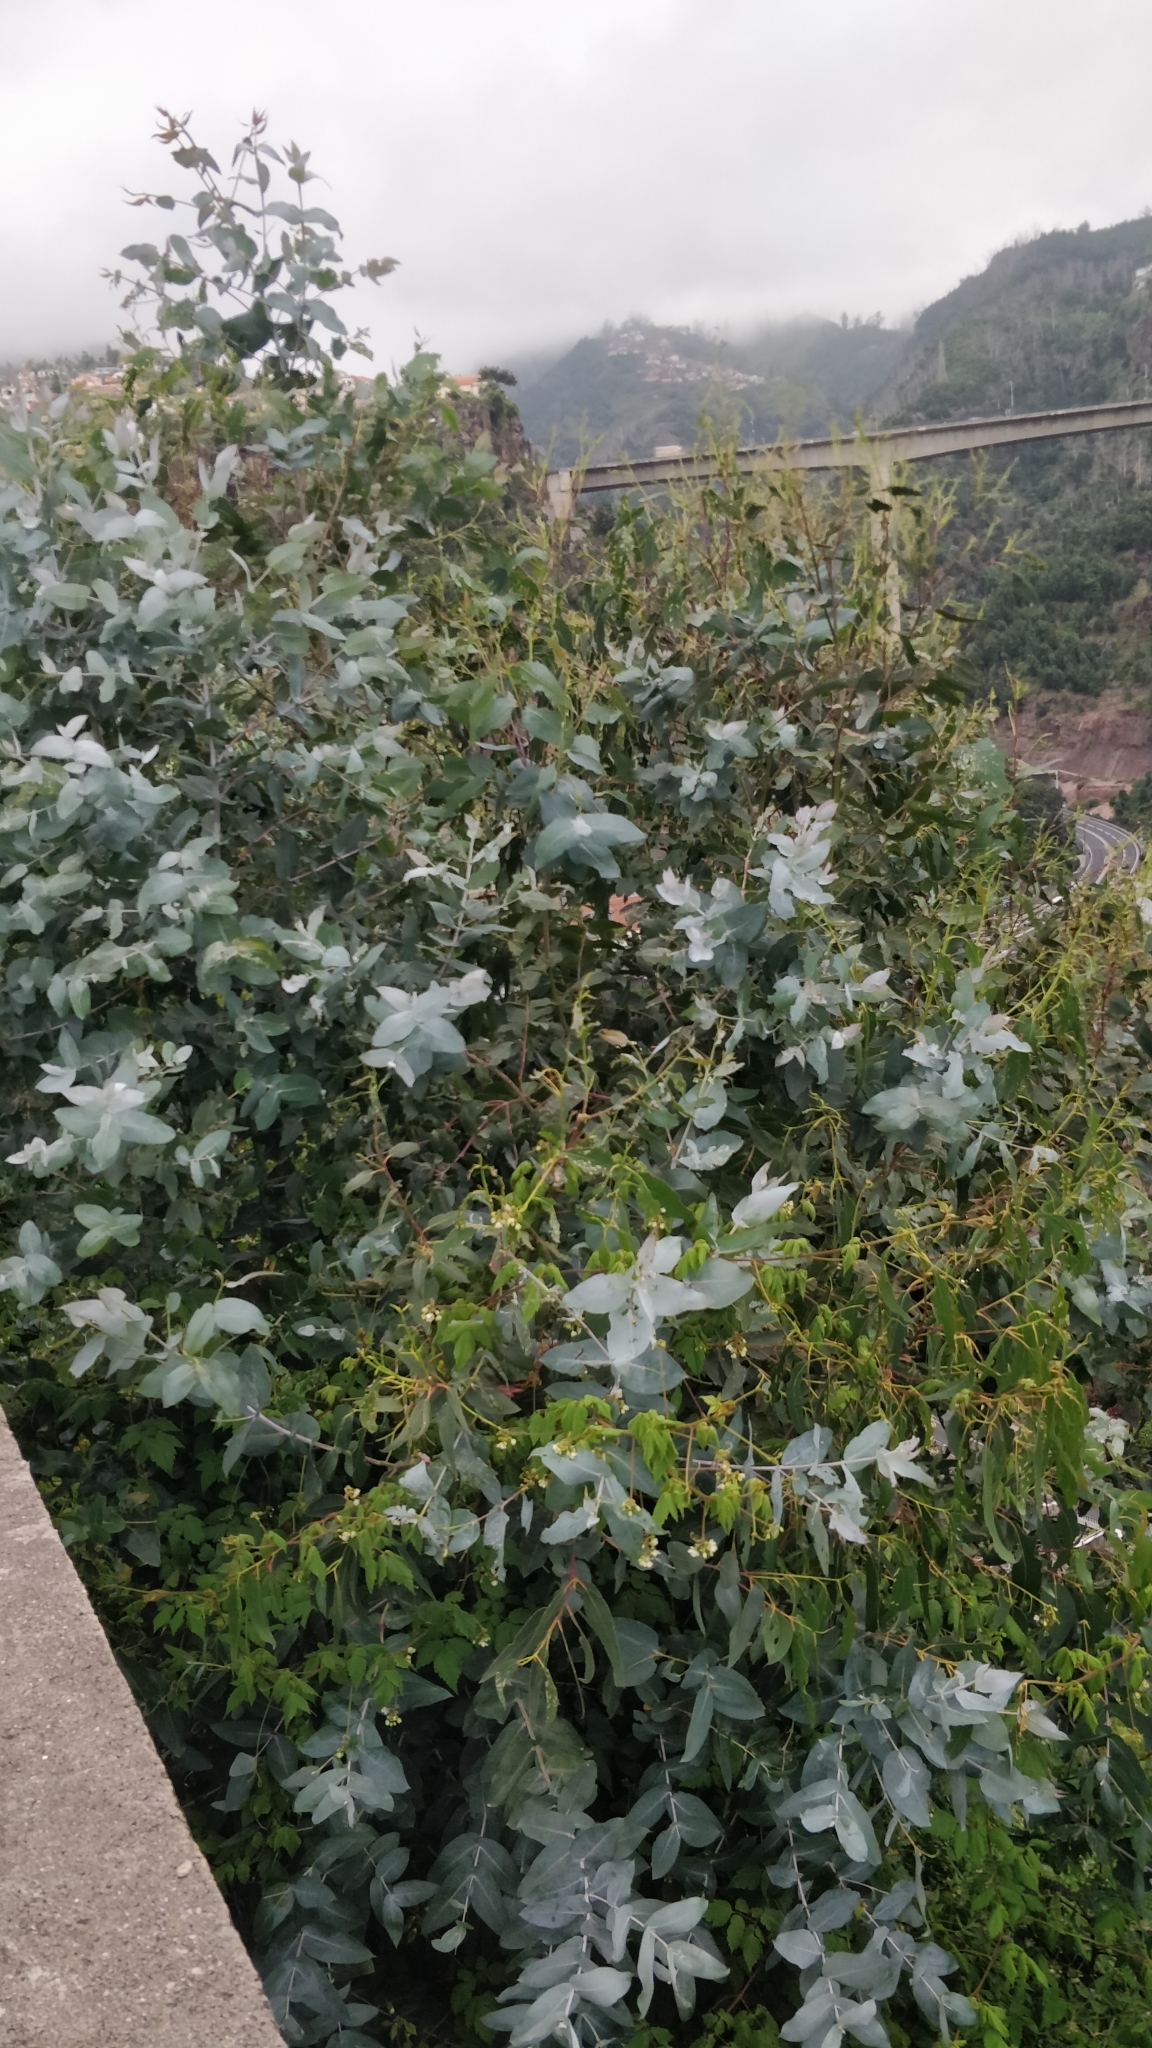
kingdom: Plantae
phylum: Tracheophyta
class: Magnoliopsida
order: Myrtales
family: Myrtaceae
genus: Eucalyptus
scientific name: Eucalyptus globulus
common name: Southern blue-gum
